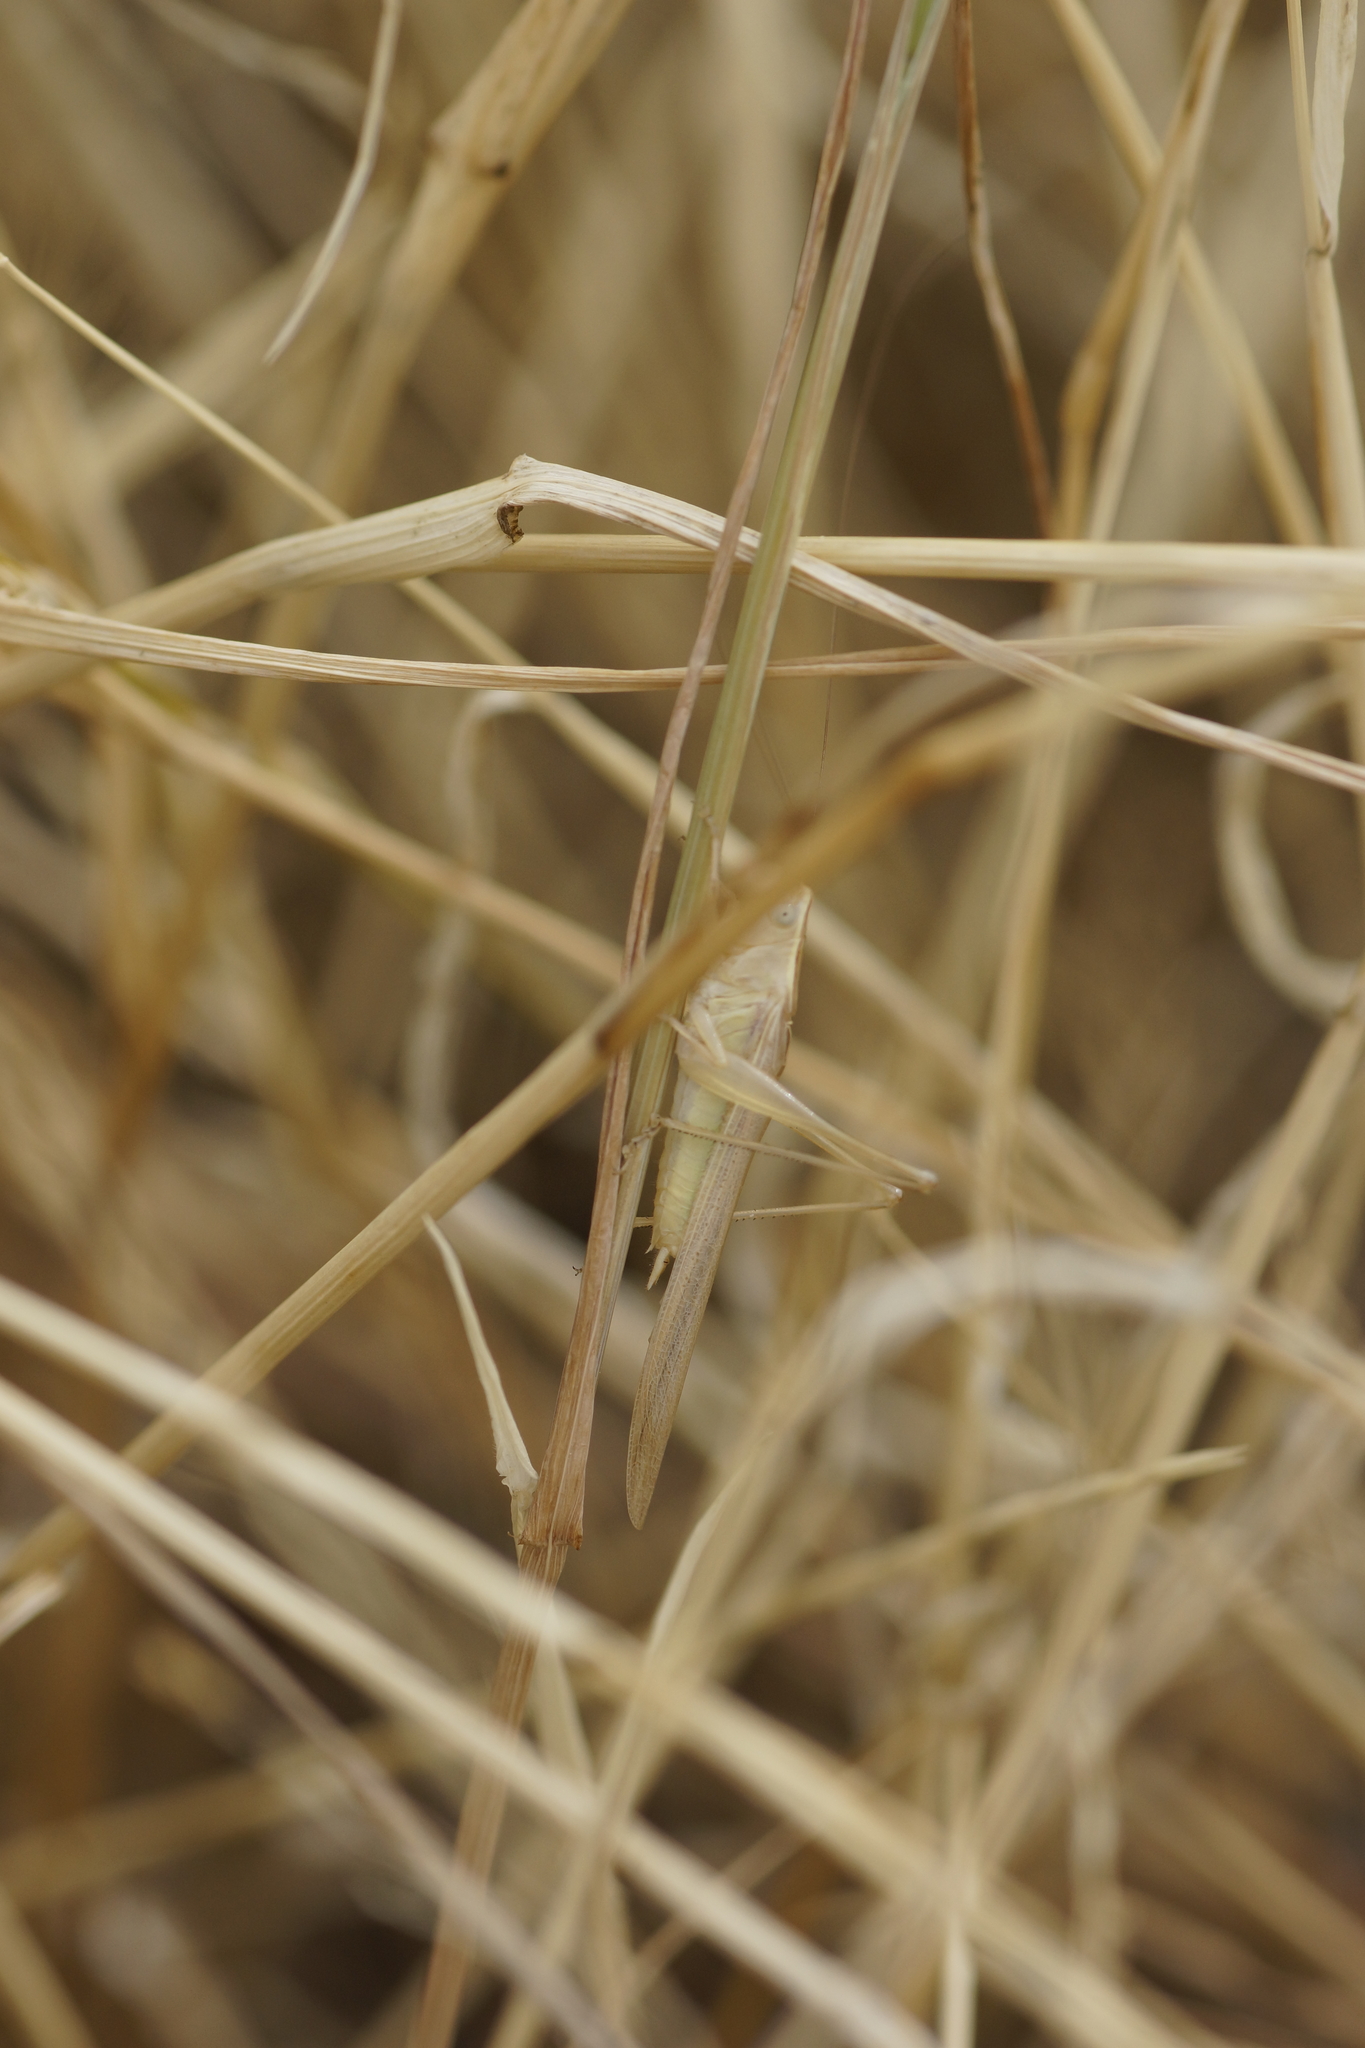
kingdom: Animalia
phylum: Arthropoda
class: Insecta
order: Orthoptera
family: Tettigoniidae
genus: Conocephalus
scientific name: Conocephalus upoluensis
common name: Upolu meadow katydid
